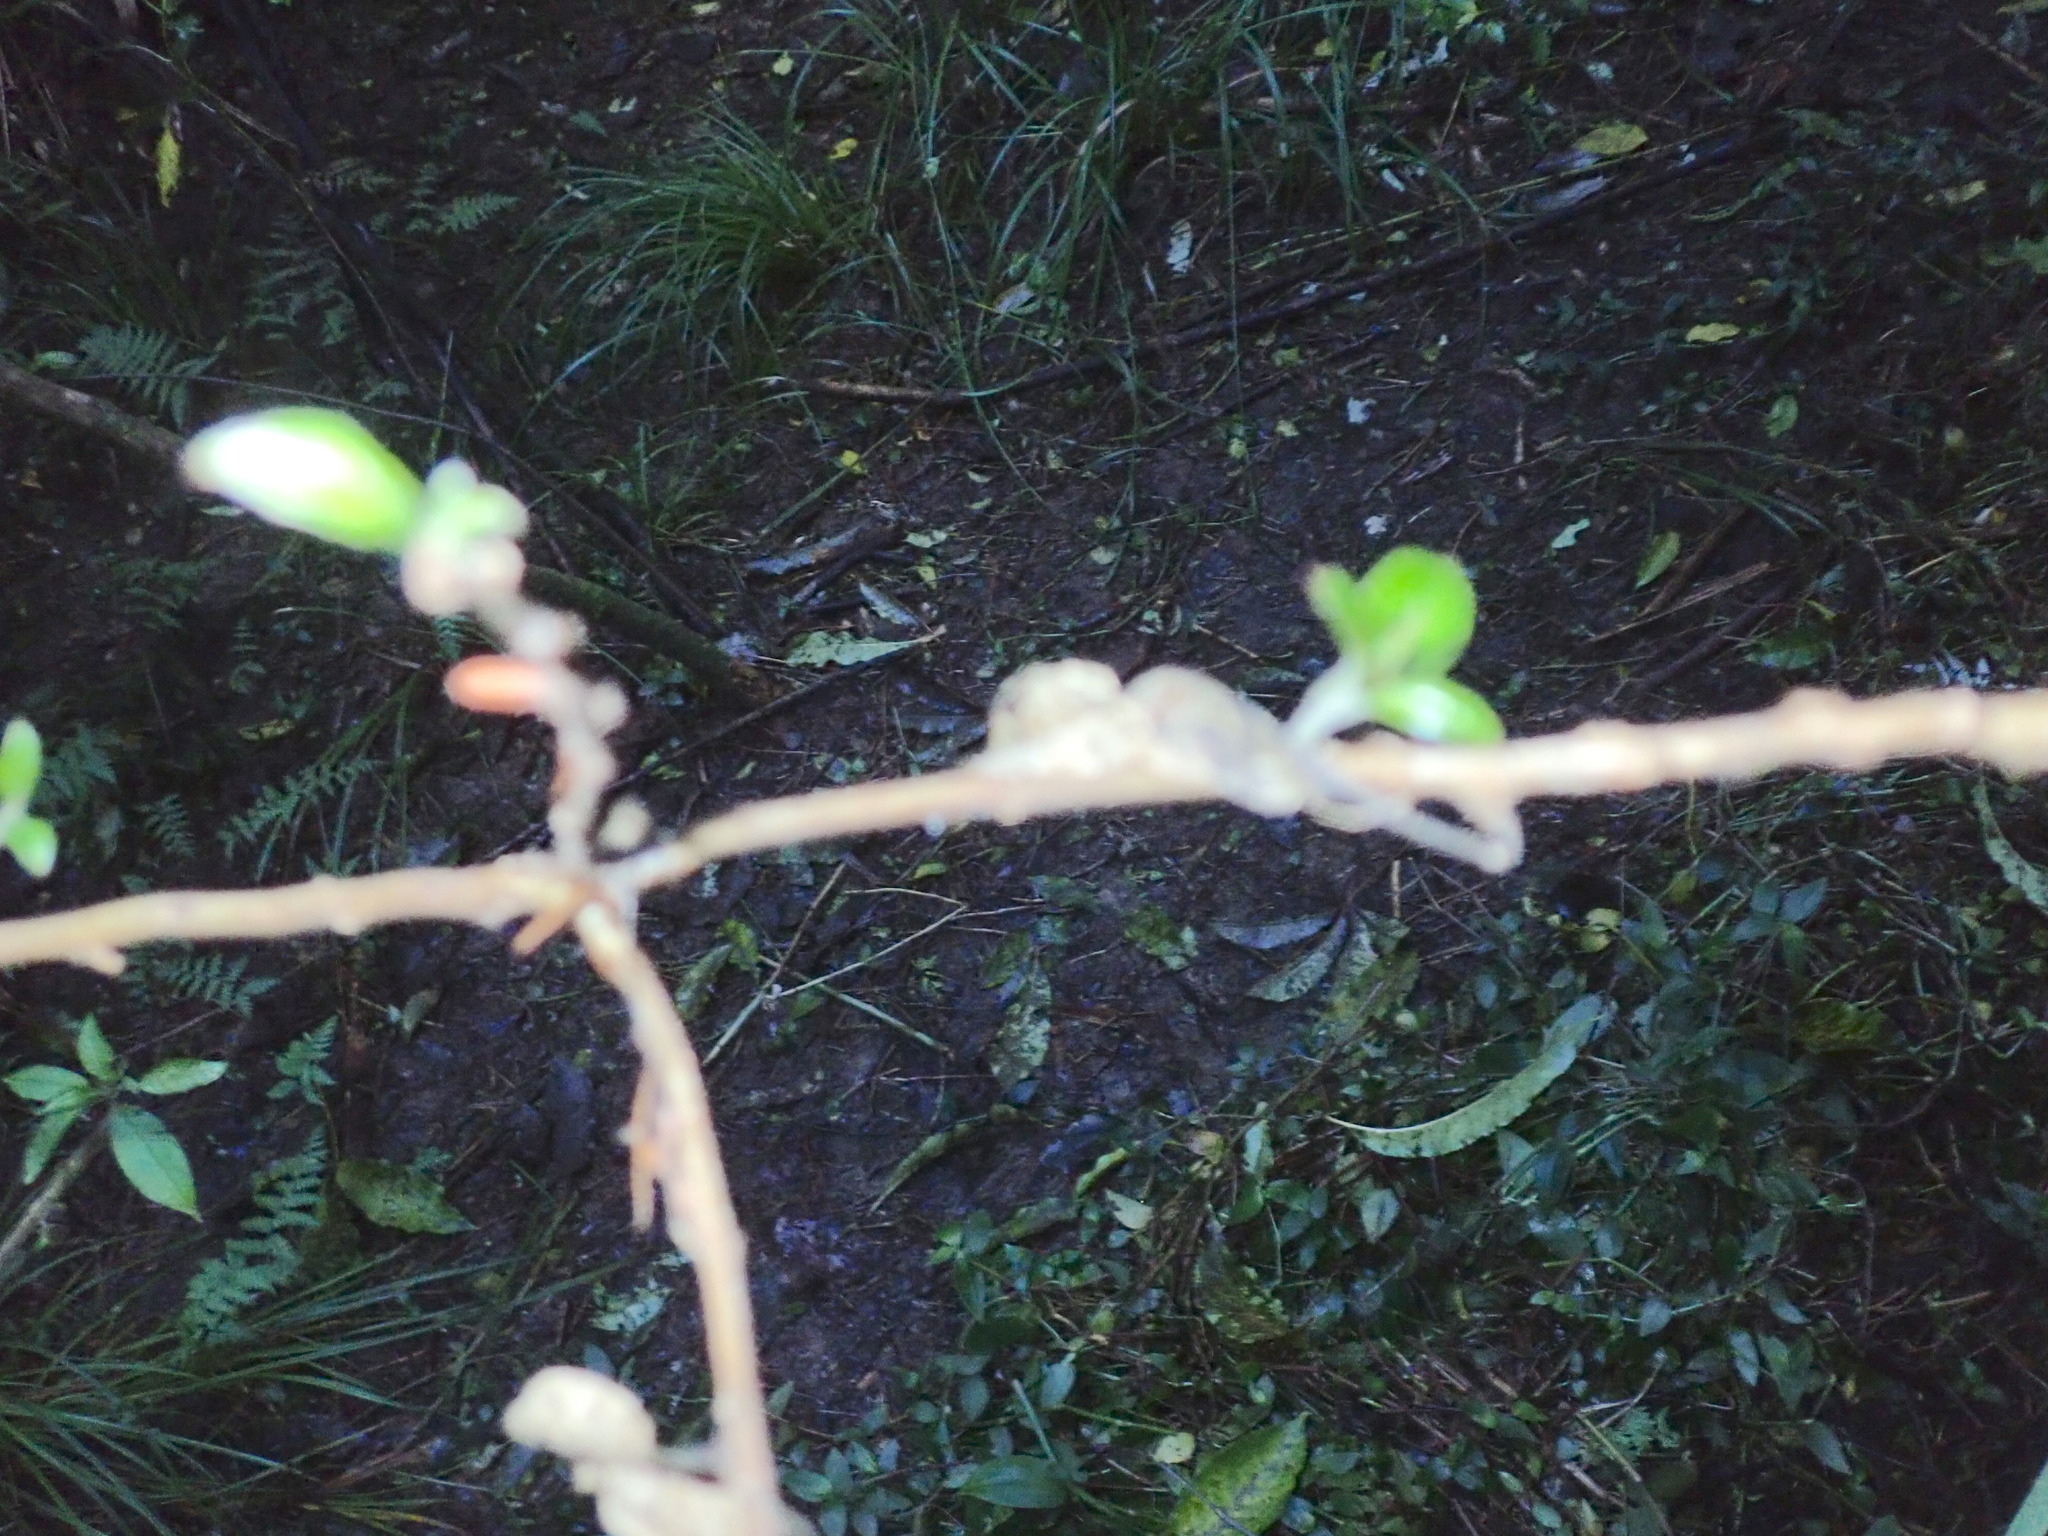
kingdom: Plantae
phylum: Tracheophyta
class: Magnoliopsida
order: Myrtales
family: Onagraceae
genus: Fuchsia
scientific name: Fuchsia excorticata
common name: Tree fuchsia
